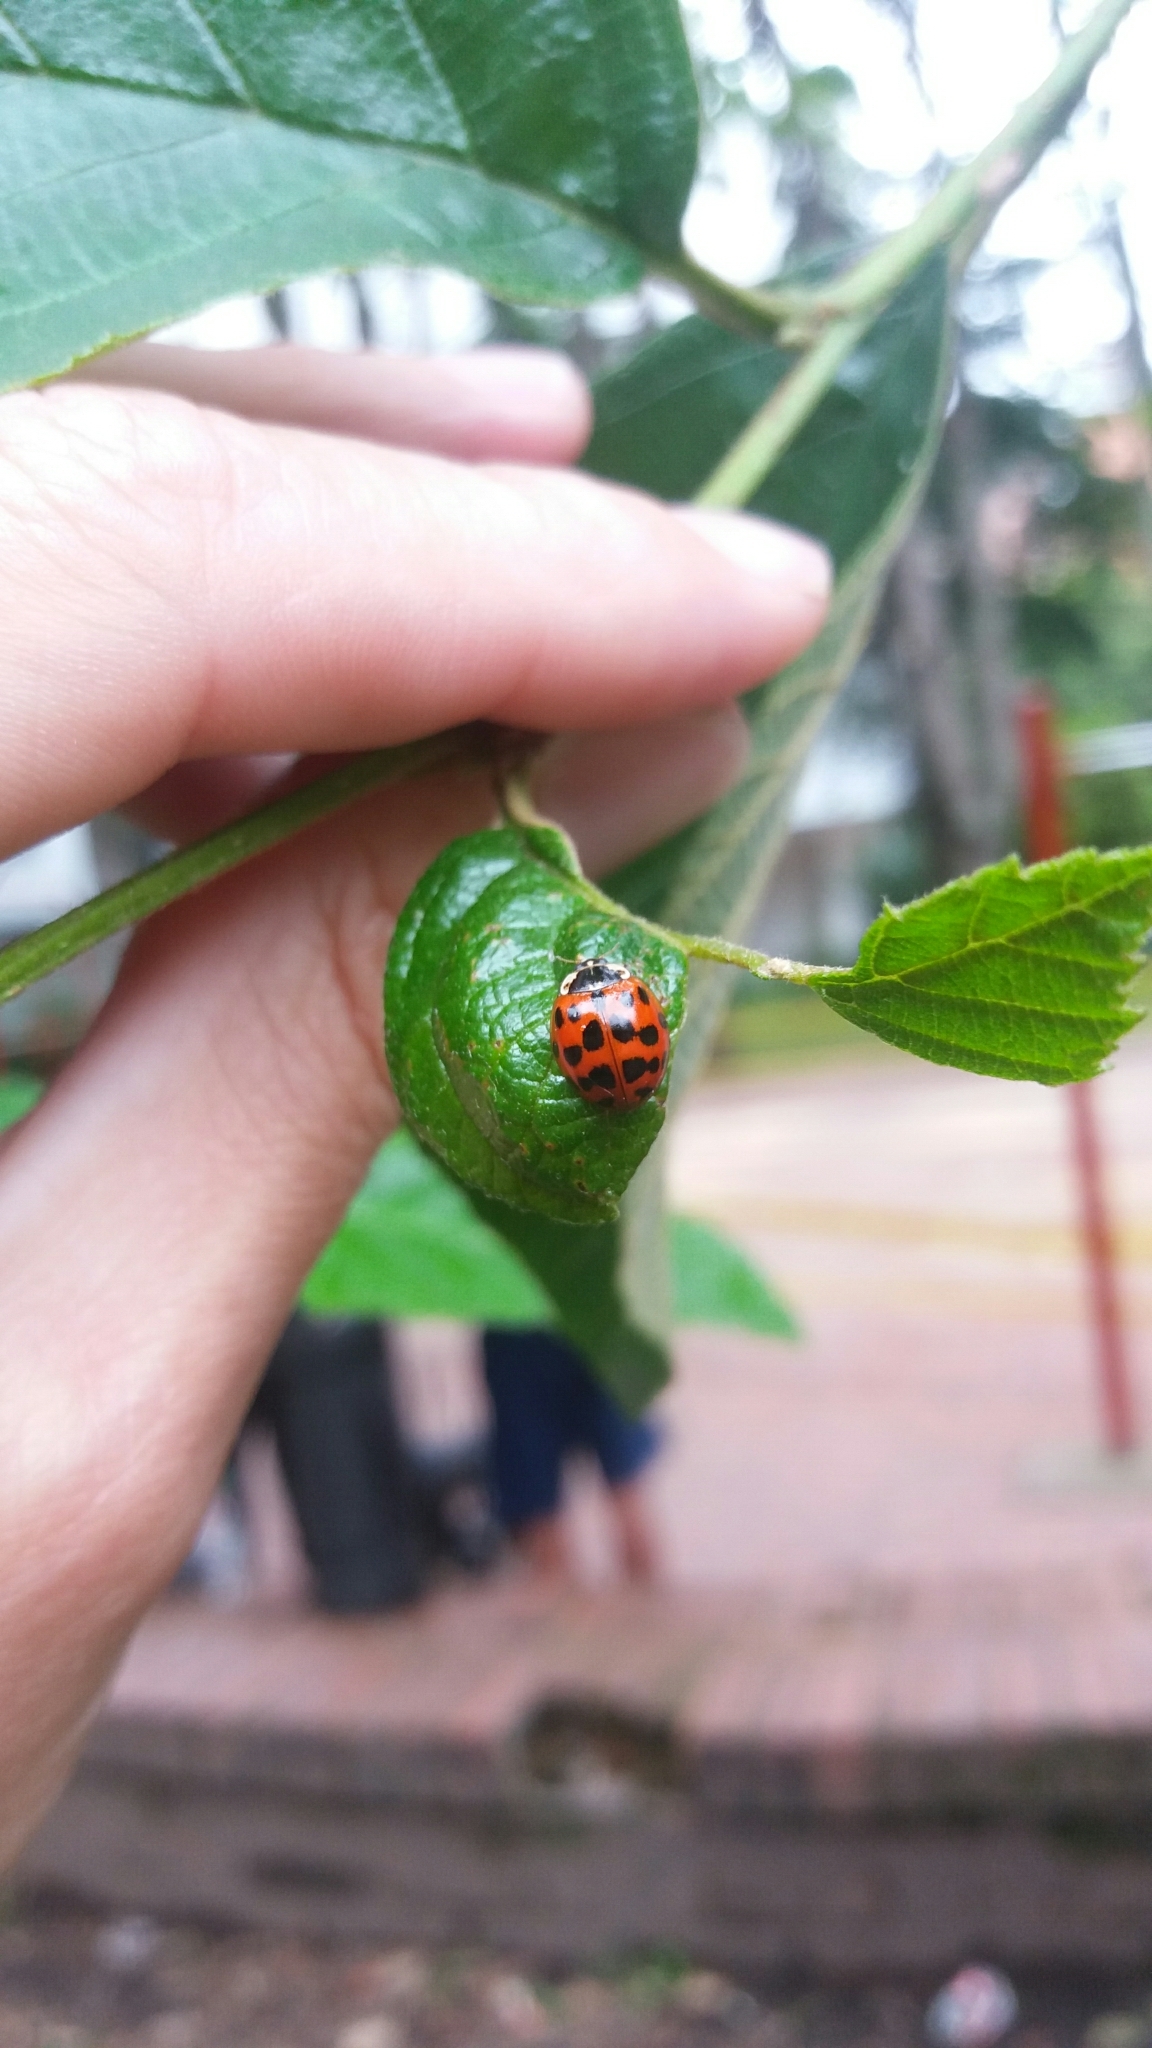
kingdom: Animalia
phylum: Arthropoda
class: Insecta
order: Coleoptera
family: Coccinellidae
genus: Harmonia
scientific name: Harmonia axyridis
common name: Harlequin ladybird
